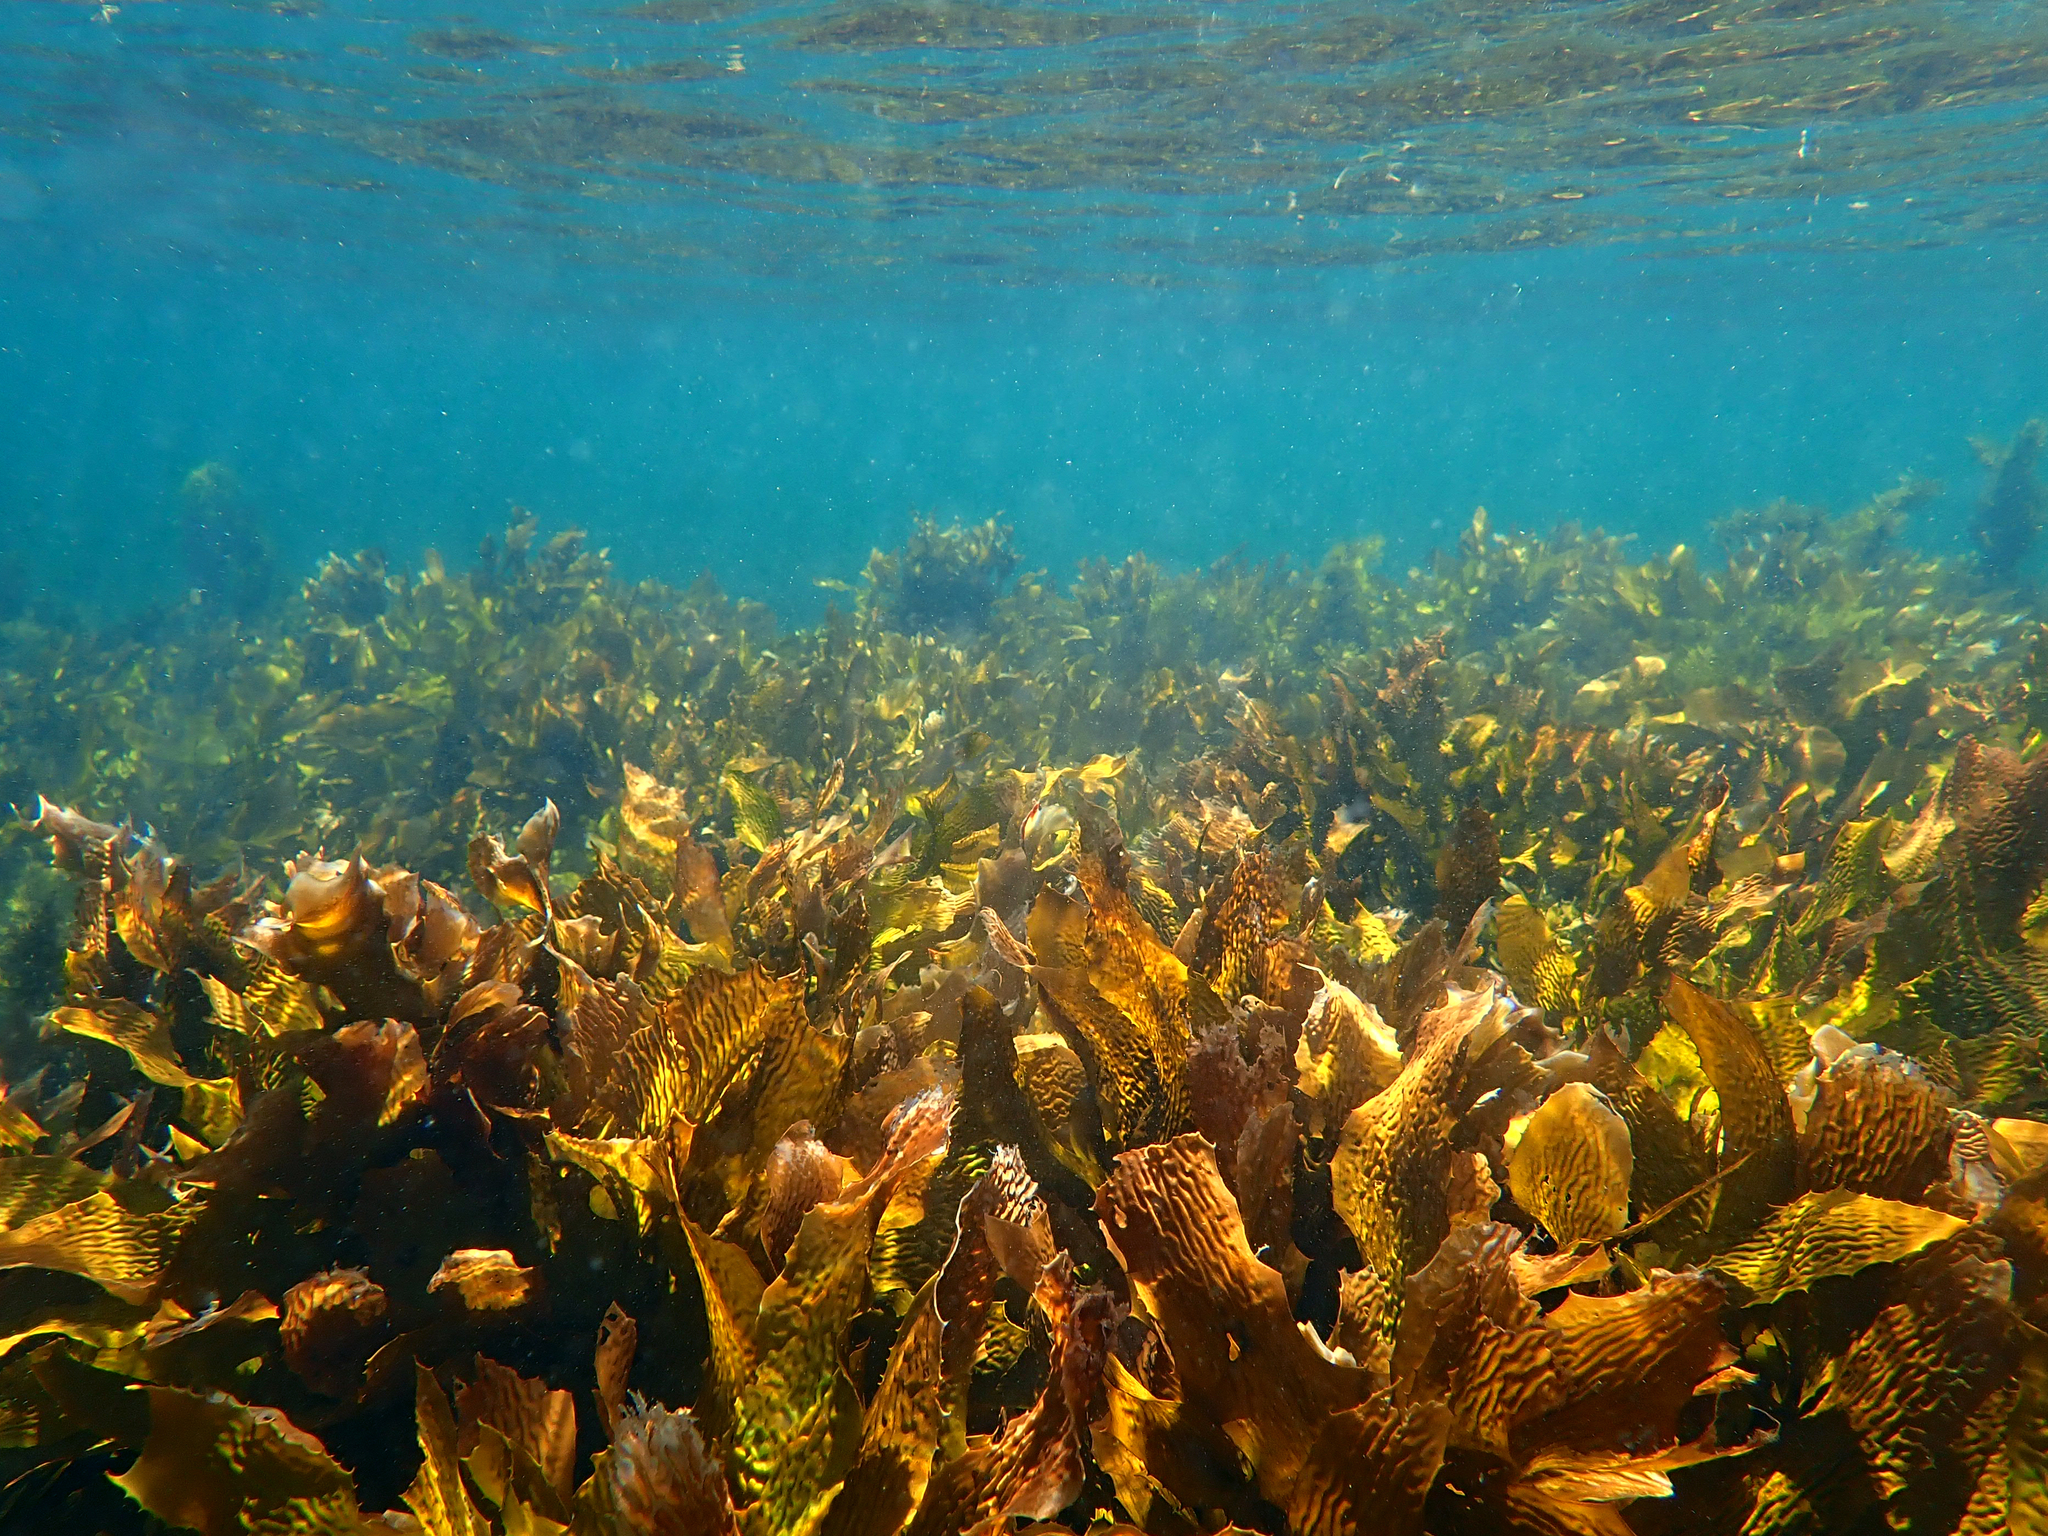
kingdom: Chromista
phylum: Ochrophyta
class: Phaeophyceae
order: Laminariales
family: Lessoniaceae
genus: Ecklonia
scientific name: Ecklonia radiata
